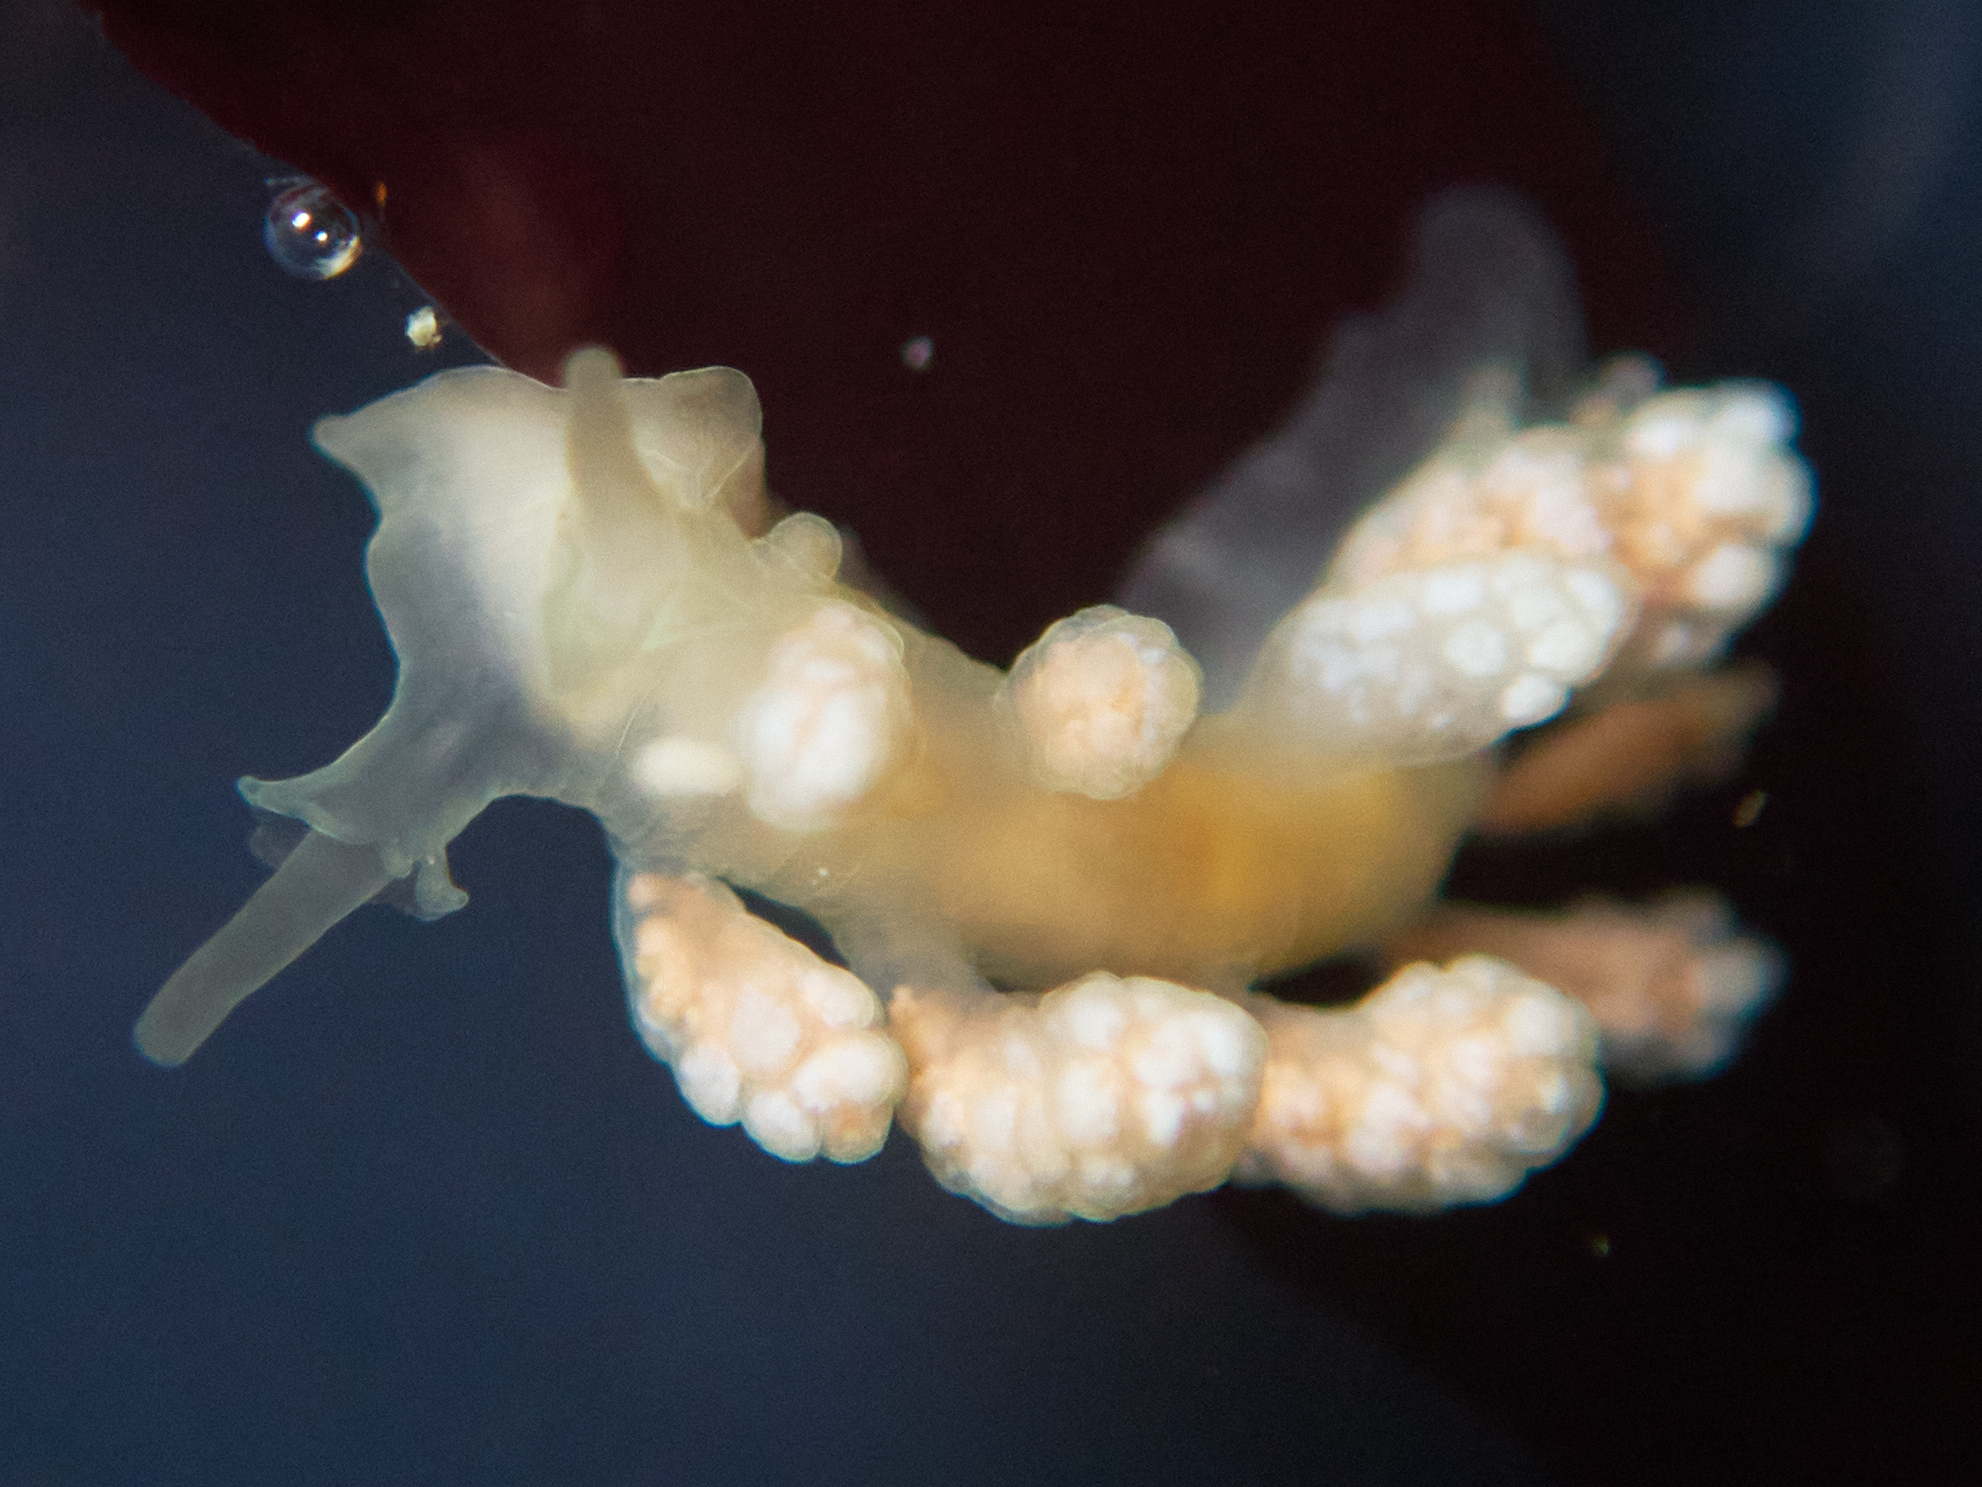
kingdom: Animalia
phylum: Mollusca
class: Gastropoda
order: Nudibranchia
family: Dotidae
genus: Doto
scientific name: Doto amyra
